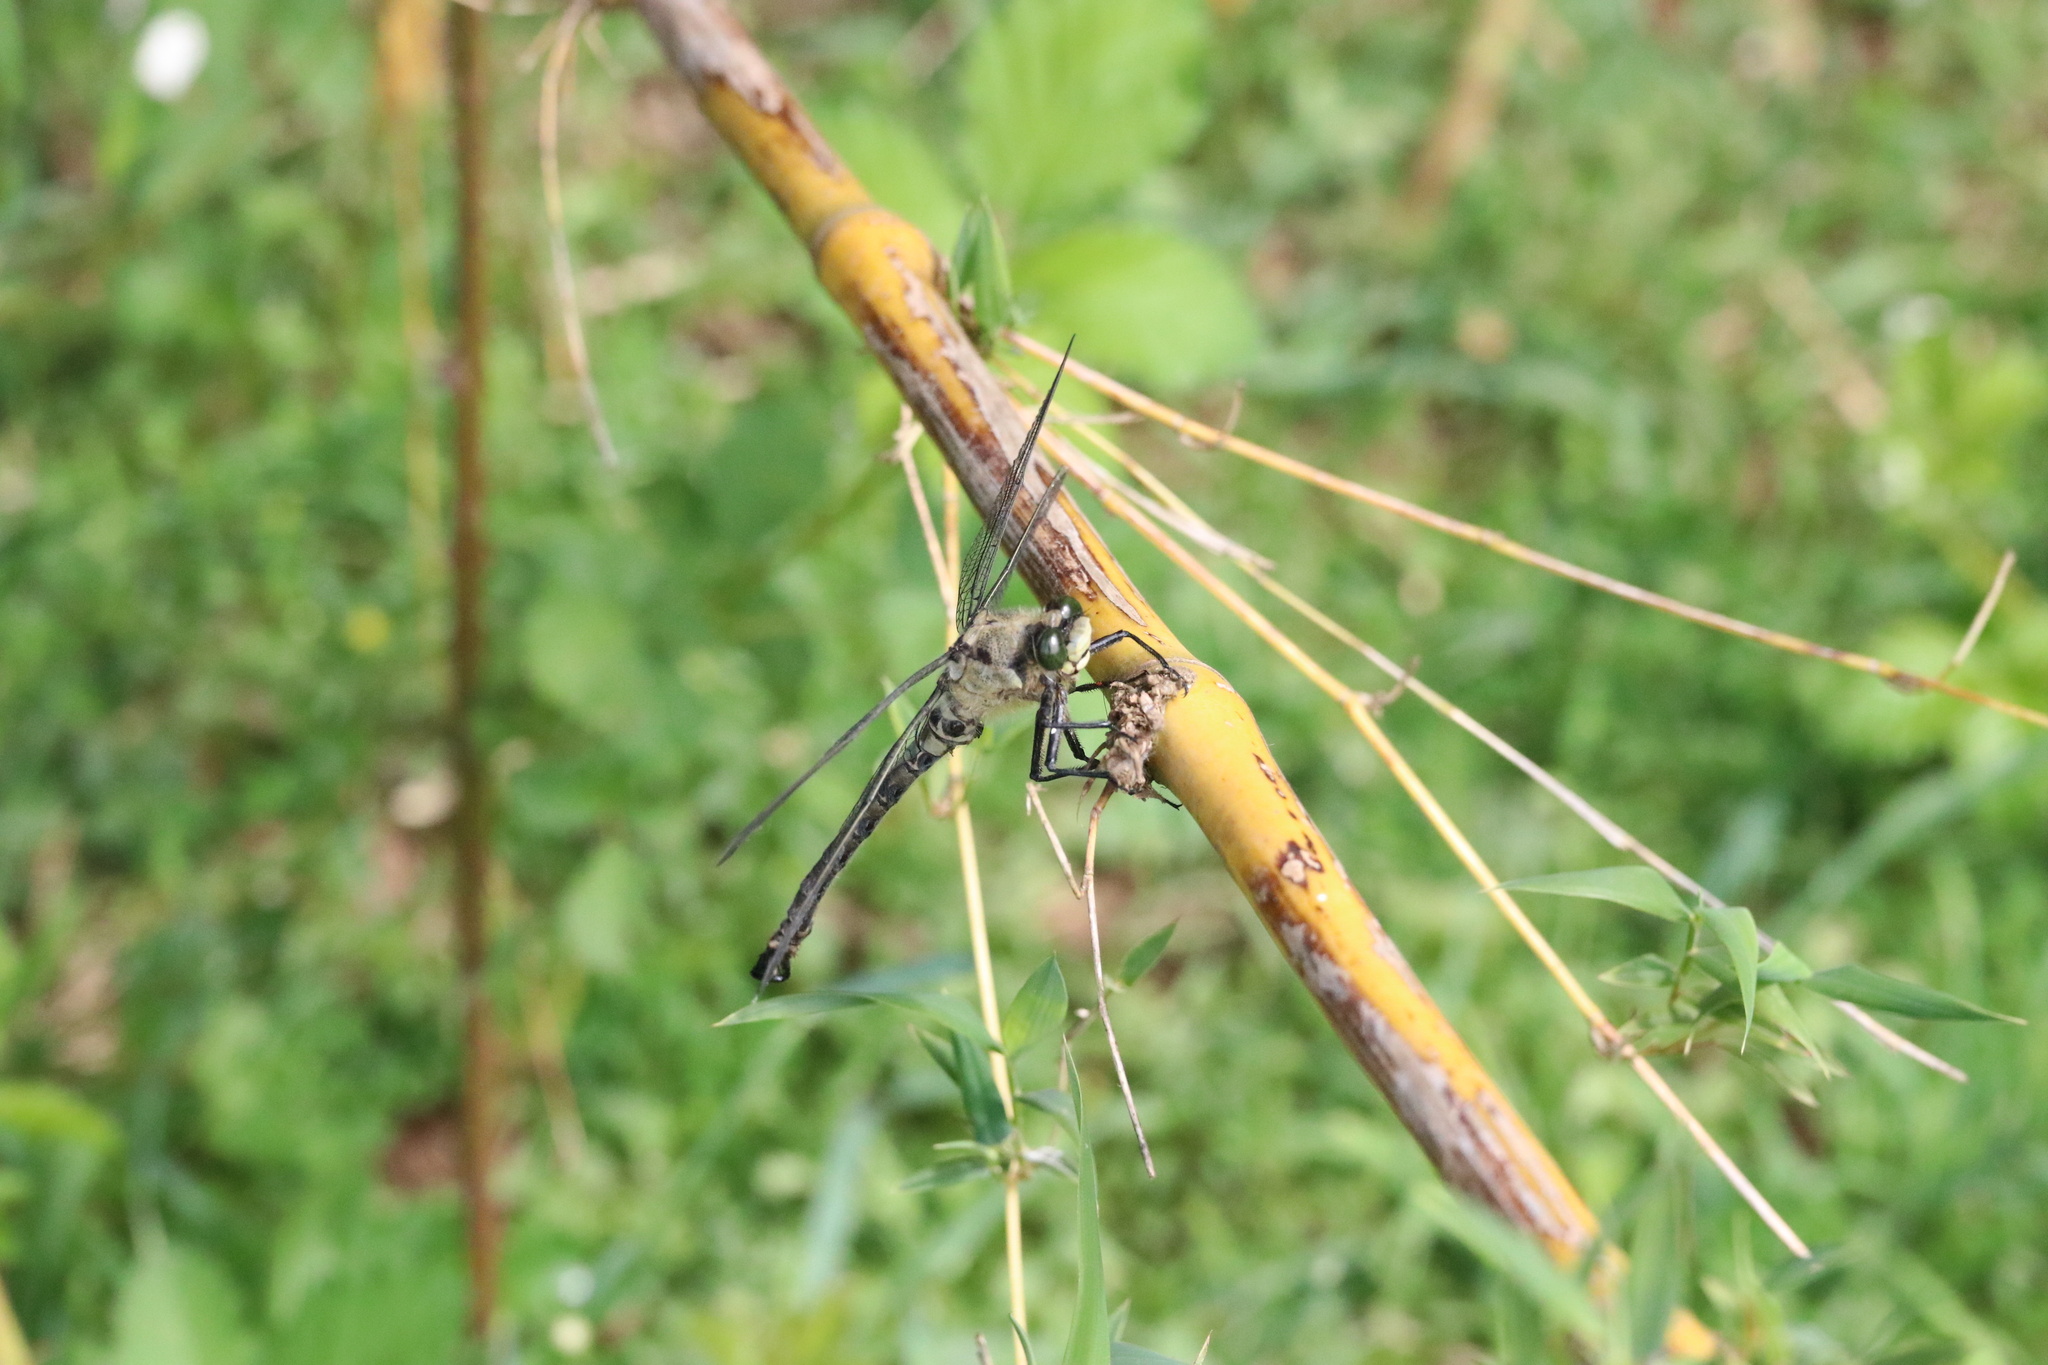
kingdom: Animalia
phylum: Arthropoda
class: Insecta
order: Odonata
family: Petaluridae
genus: Phenes
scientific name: Phenes raptor
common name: Chilean petaltail
